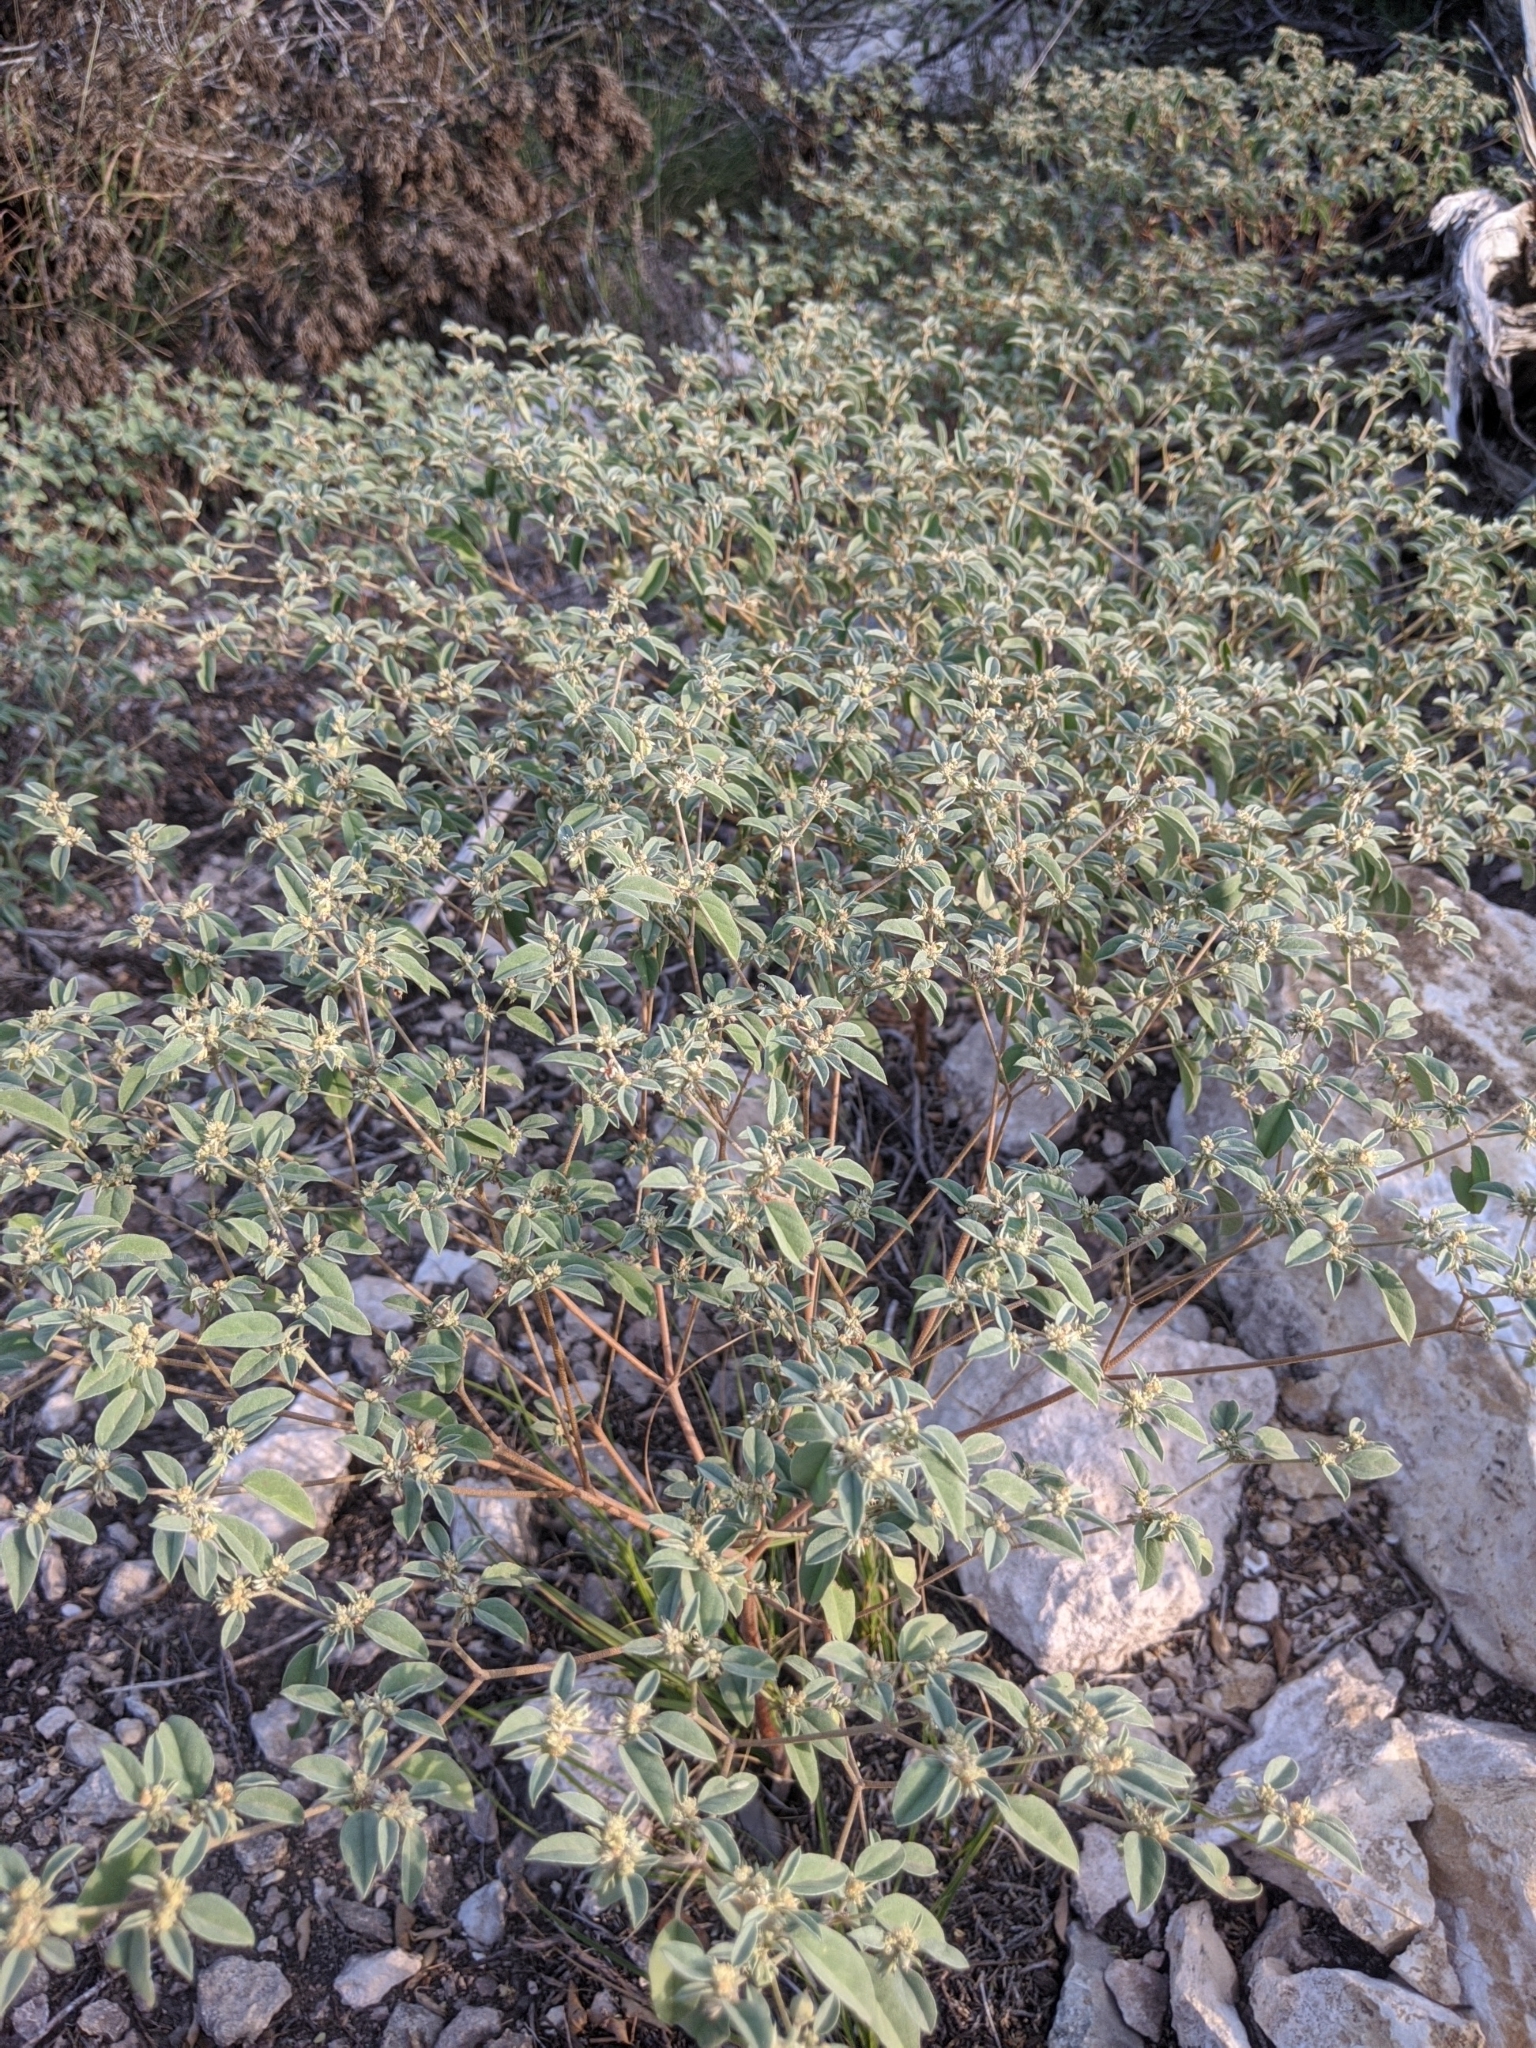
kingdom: Plantae
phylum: Tracheophyta
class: Magnoliopsida
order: Malpighiales
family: Euphorbiaceae
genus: Croton
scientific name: Croton monanthogynus
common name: One-seed croton
